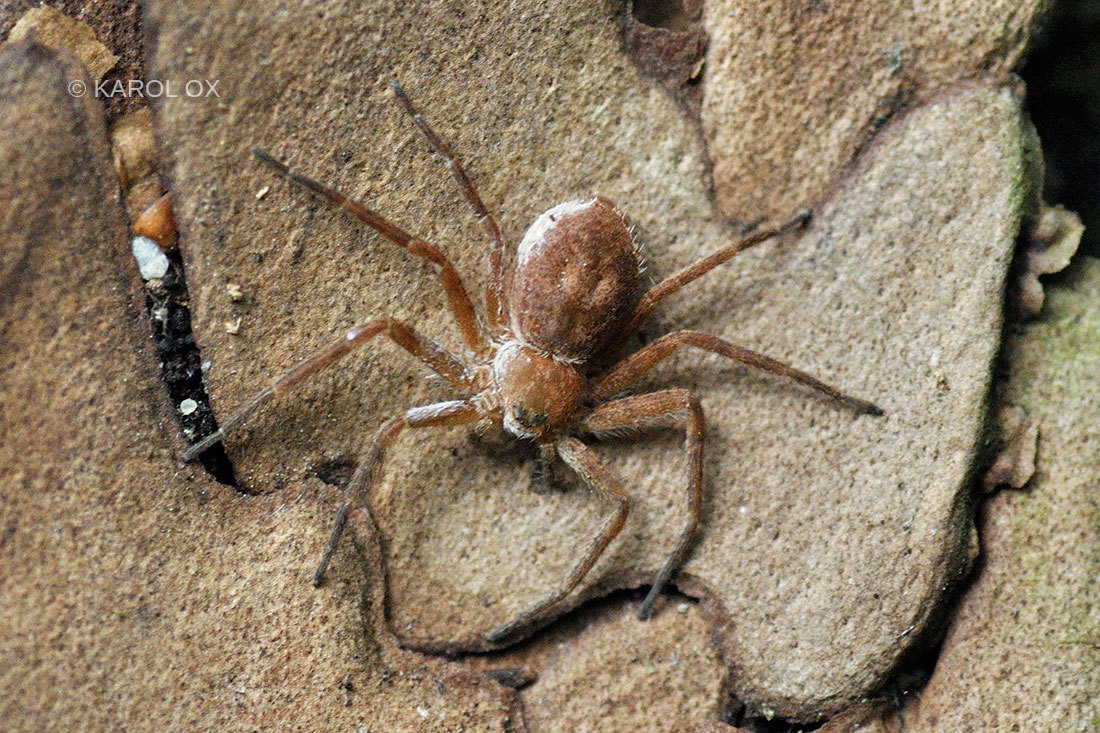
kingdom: Animalia
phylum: Arthropoda
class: Arachnida
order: Araneae
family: Philodromidae
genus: Philodromus
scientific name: Philodromus fuscomarginatus
